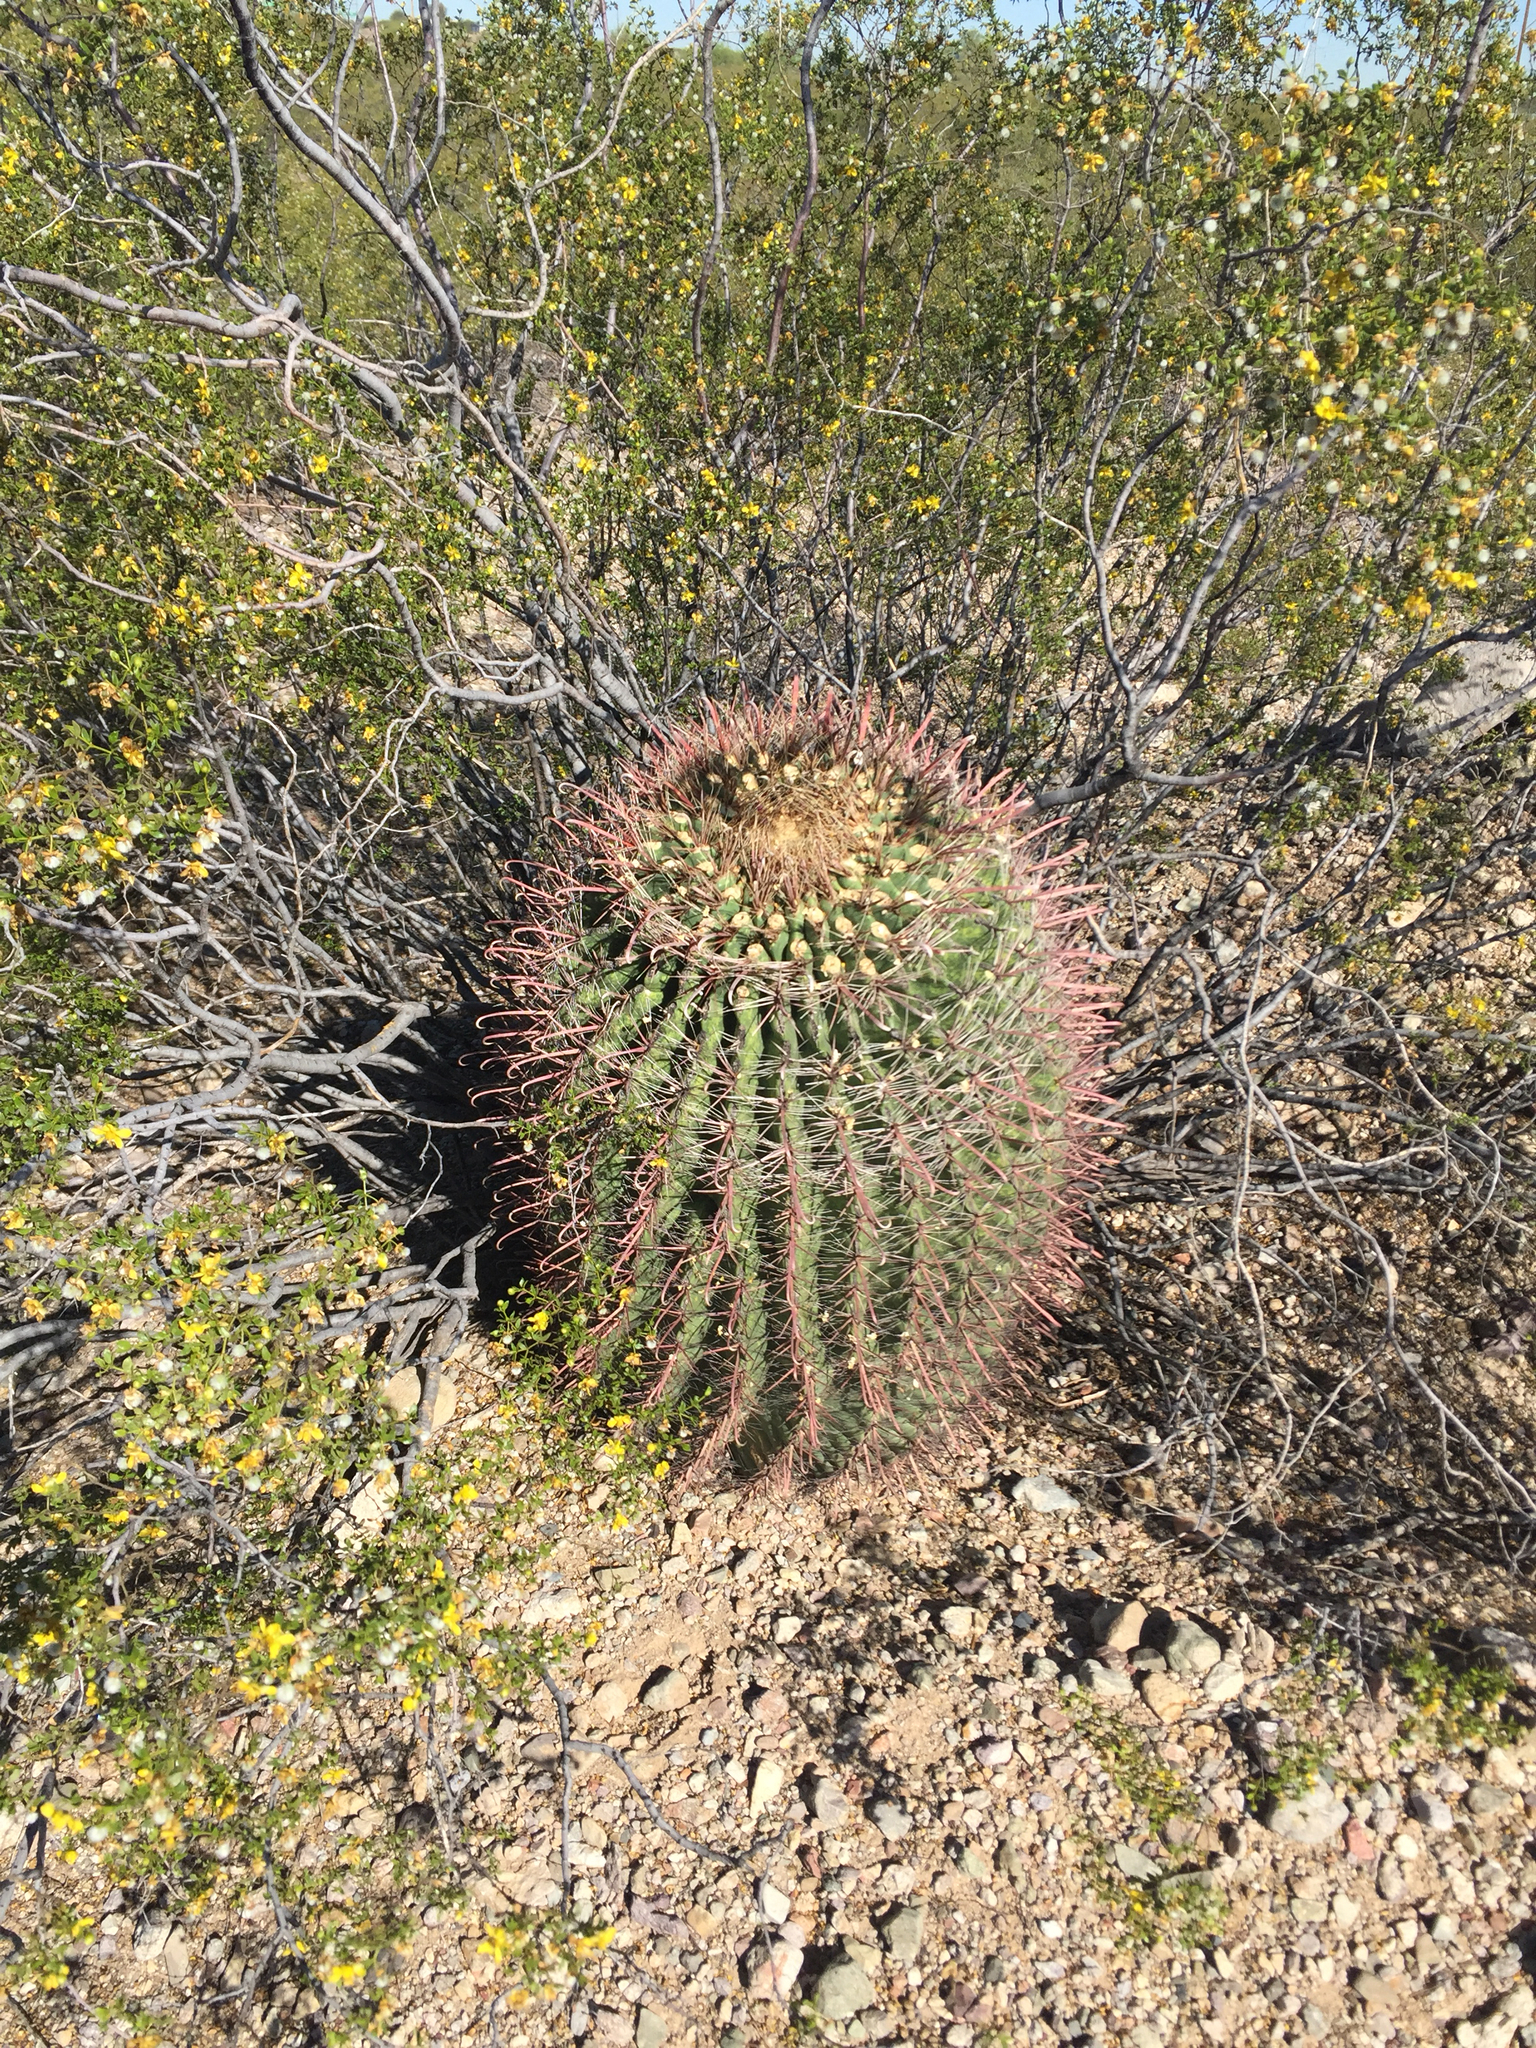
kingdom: Plantae
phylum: Tracheophyta
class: Magnoliopsida
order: Caryophyllales
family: Cactaceae
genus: Ferocactus
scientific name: Ferocactus wislizeni
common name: Candy barrel cactus
